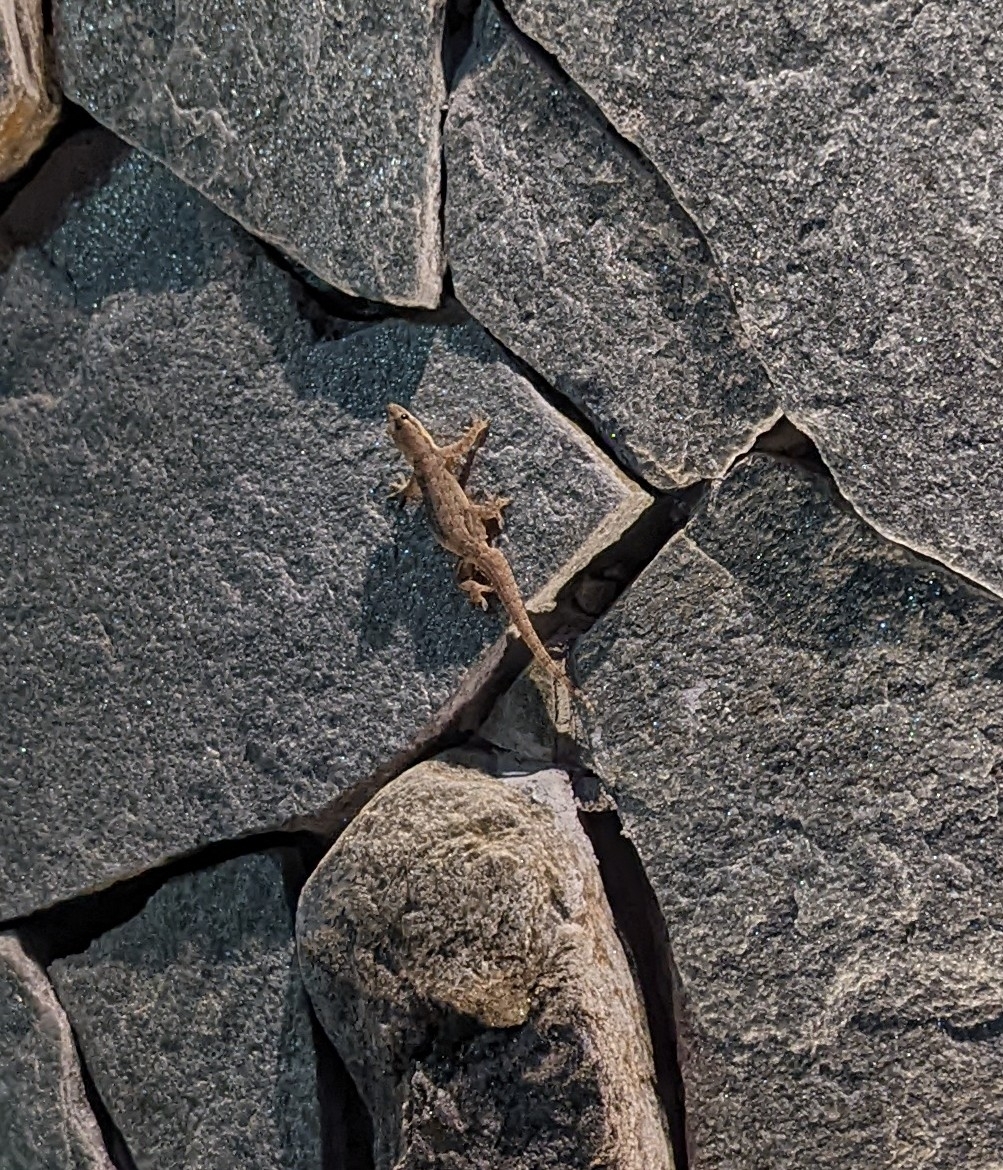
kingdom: Animalia
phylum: Chordata
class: Squamata
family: Gekkonidae
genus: Hemidactylus
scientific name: Hemidactylus platyurus
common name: Flat-tailed house gecko
